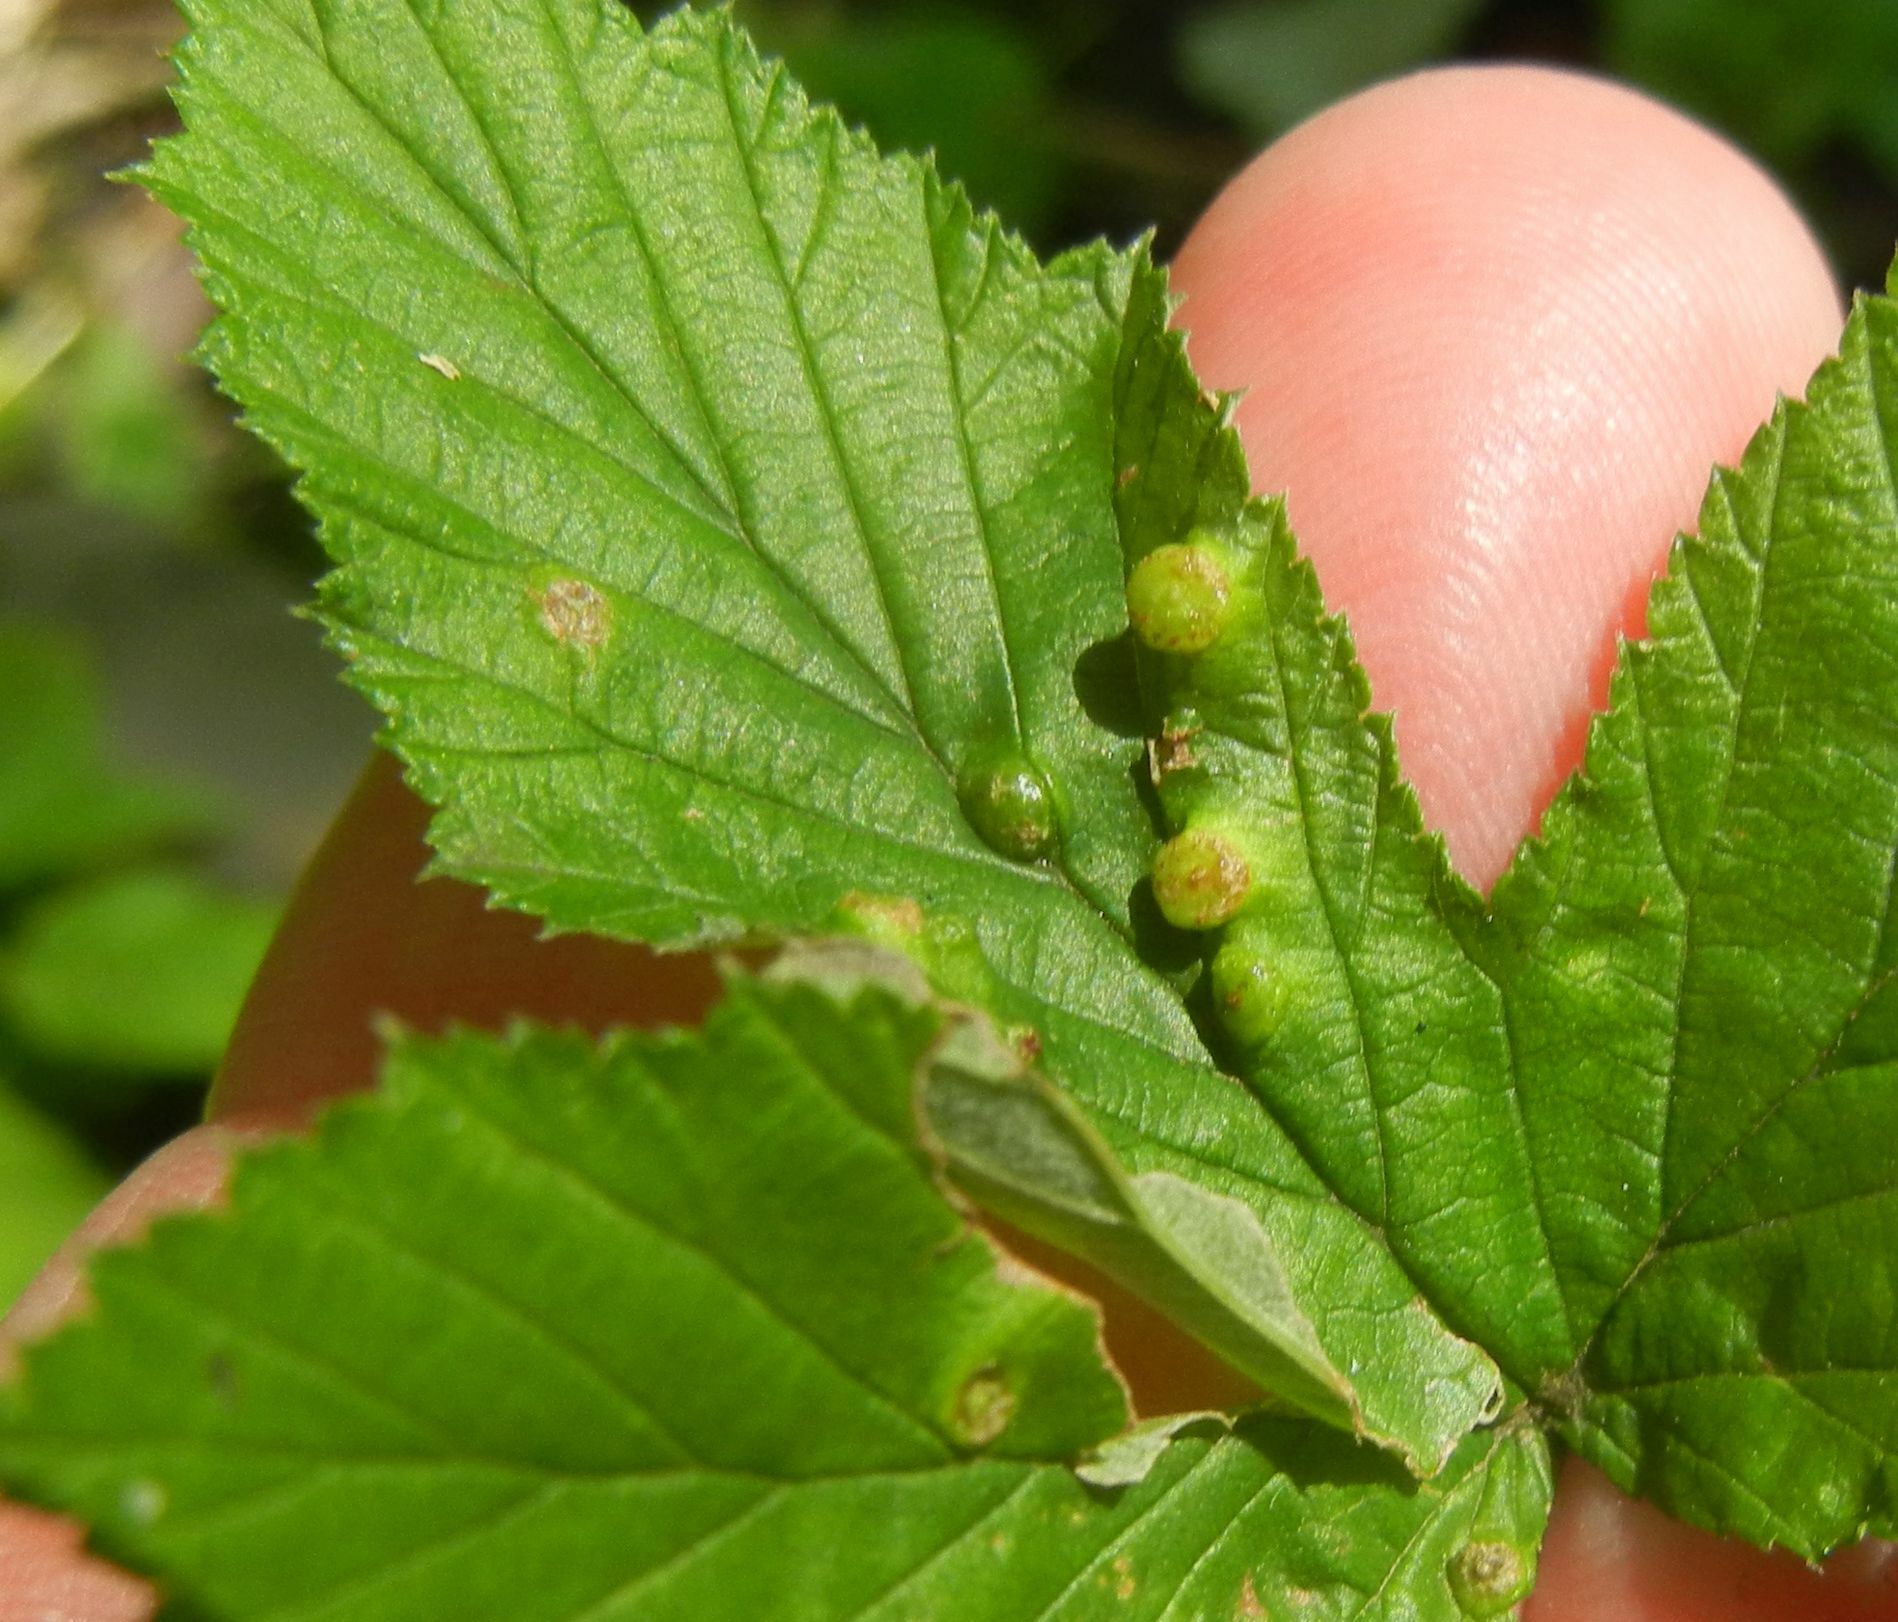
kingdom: Animalia
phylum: Arthropoda
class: Insecta
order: Diptera
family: Cecidomyiidae
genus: Dasineura
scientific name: Dasineura ulmaria
